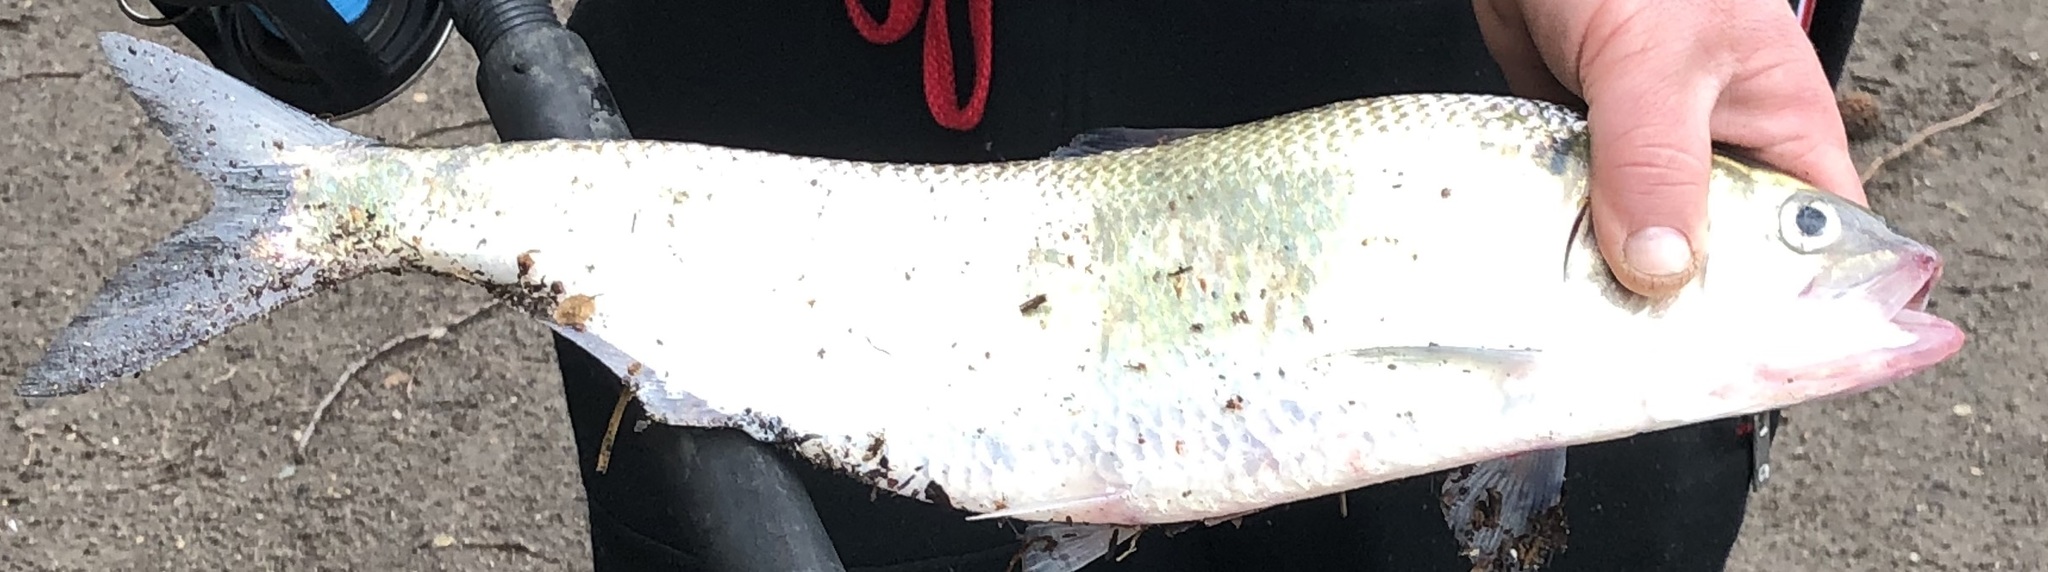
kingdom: Animalia
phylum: Chordata
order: Clupeiformes
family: Clupeidae
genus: Alosa
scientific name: Alosa sapidissima
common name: American shad
